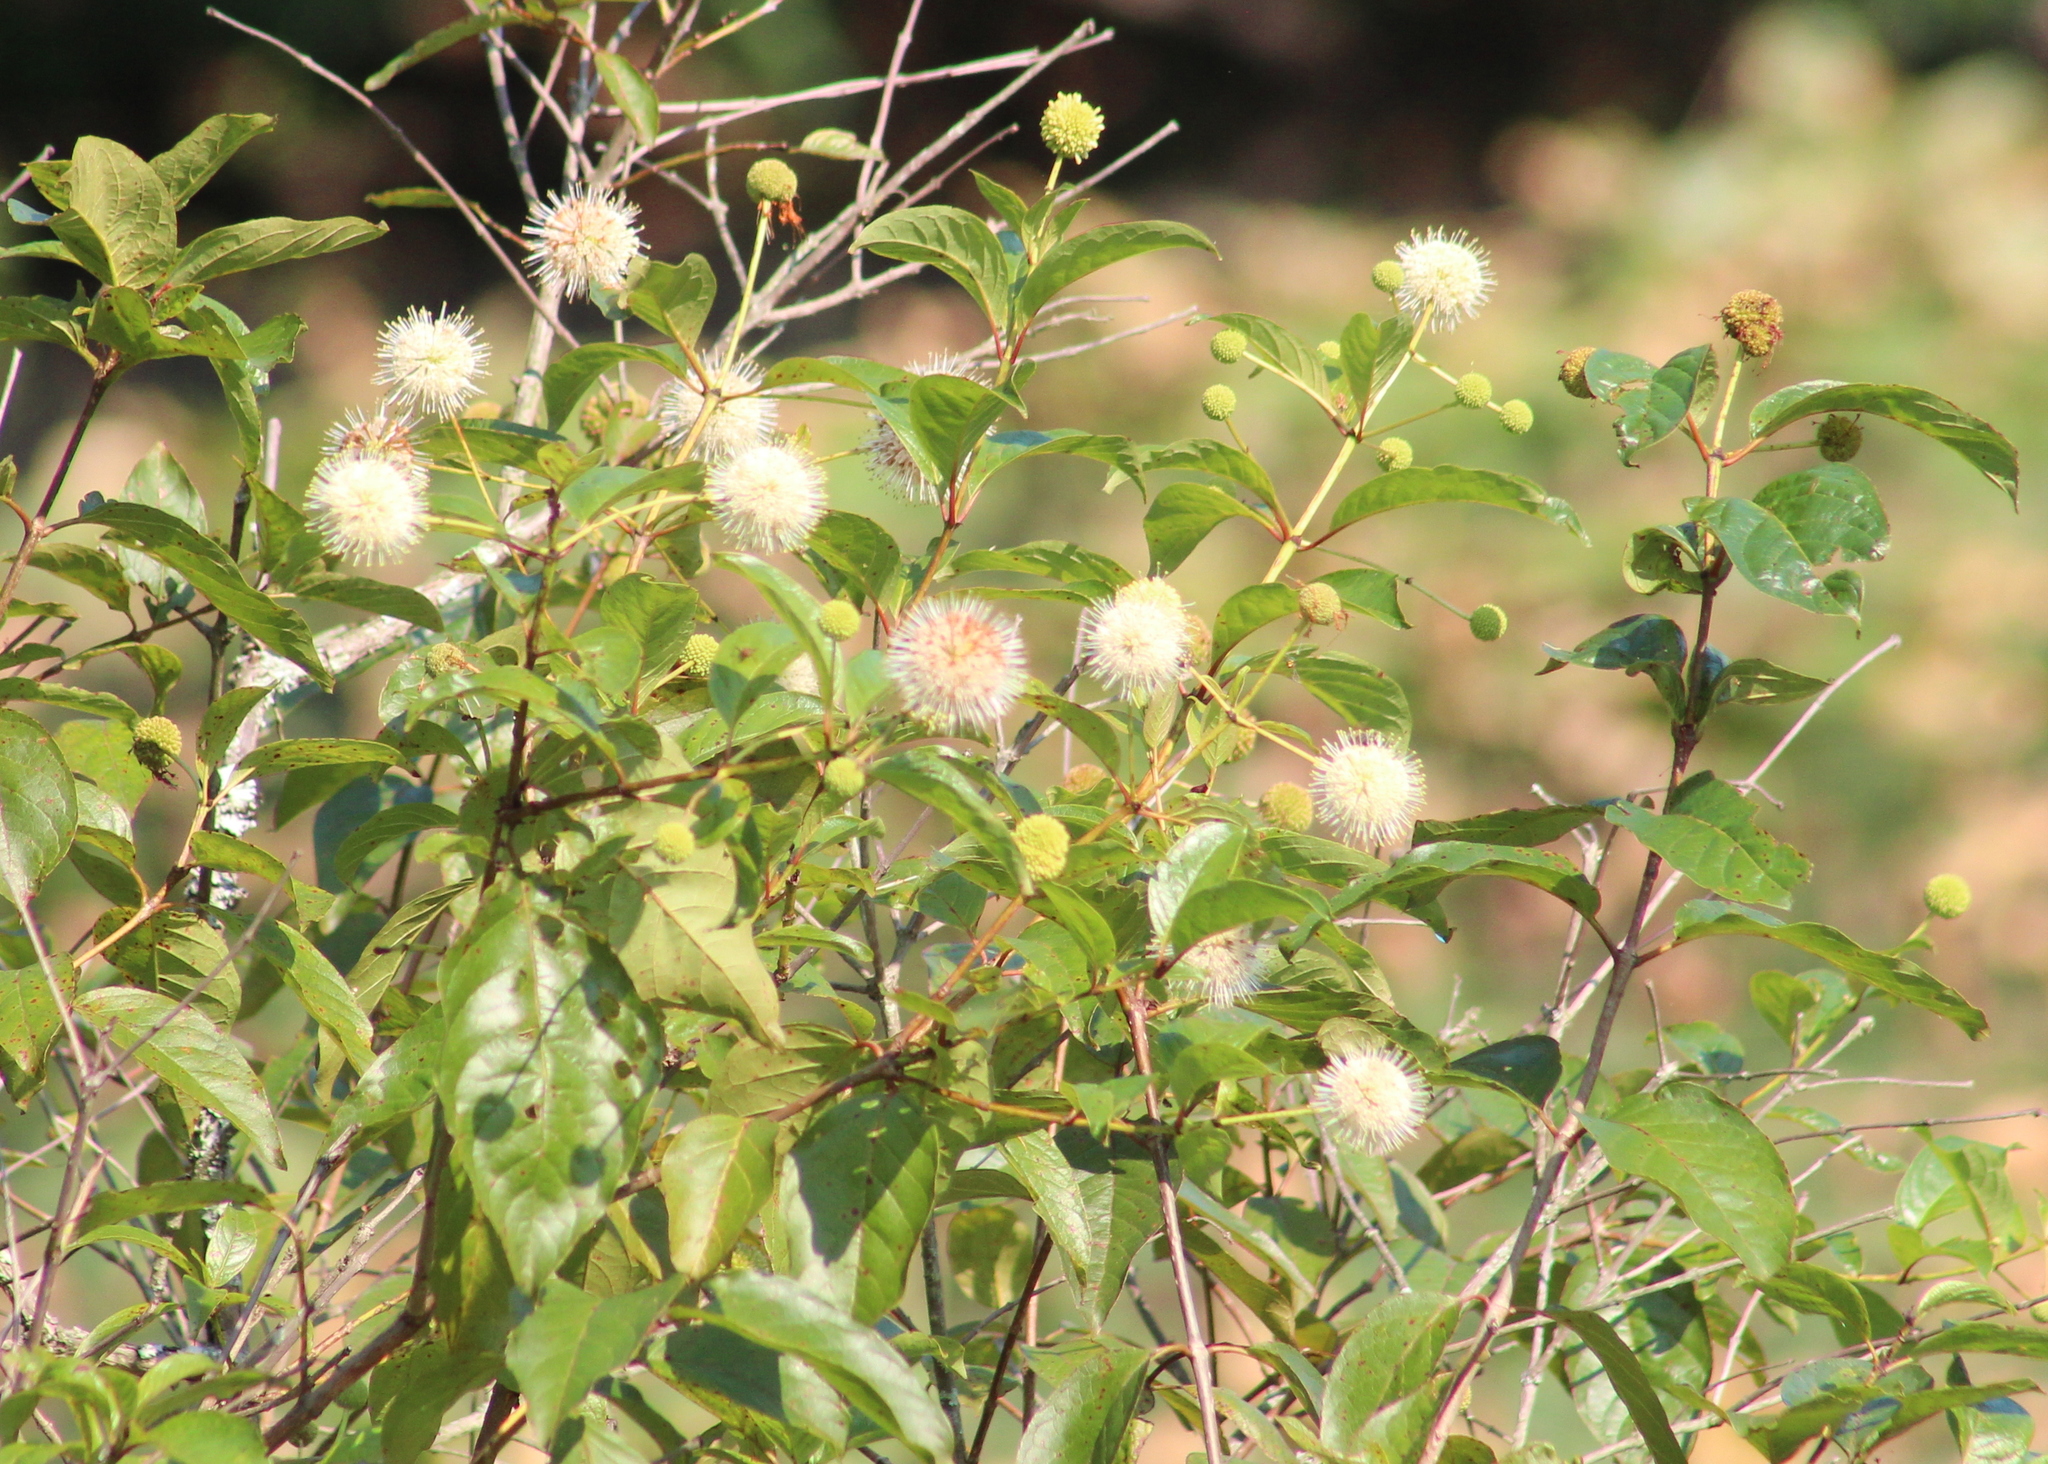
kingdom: Plantae
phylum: Tracheophyta
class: Magnoliopsida
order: Gentianales
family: Rubiaceae
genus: Cephalanthus
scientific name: Cephalanthus occidentalis
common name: Button-willow
